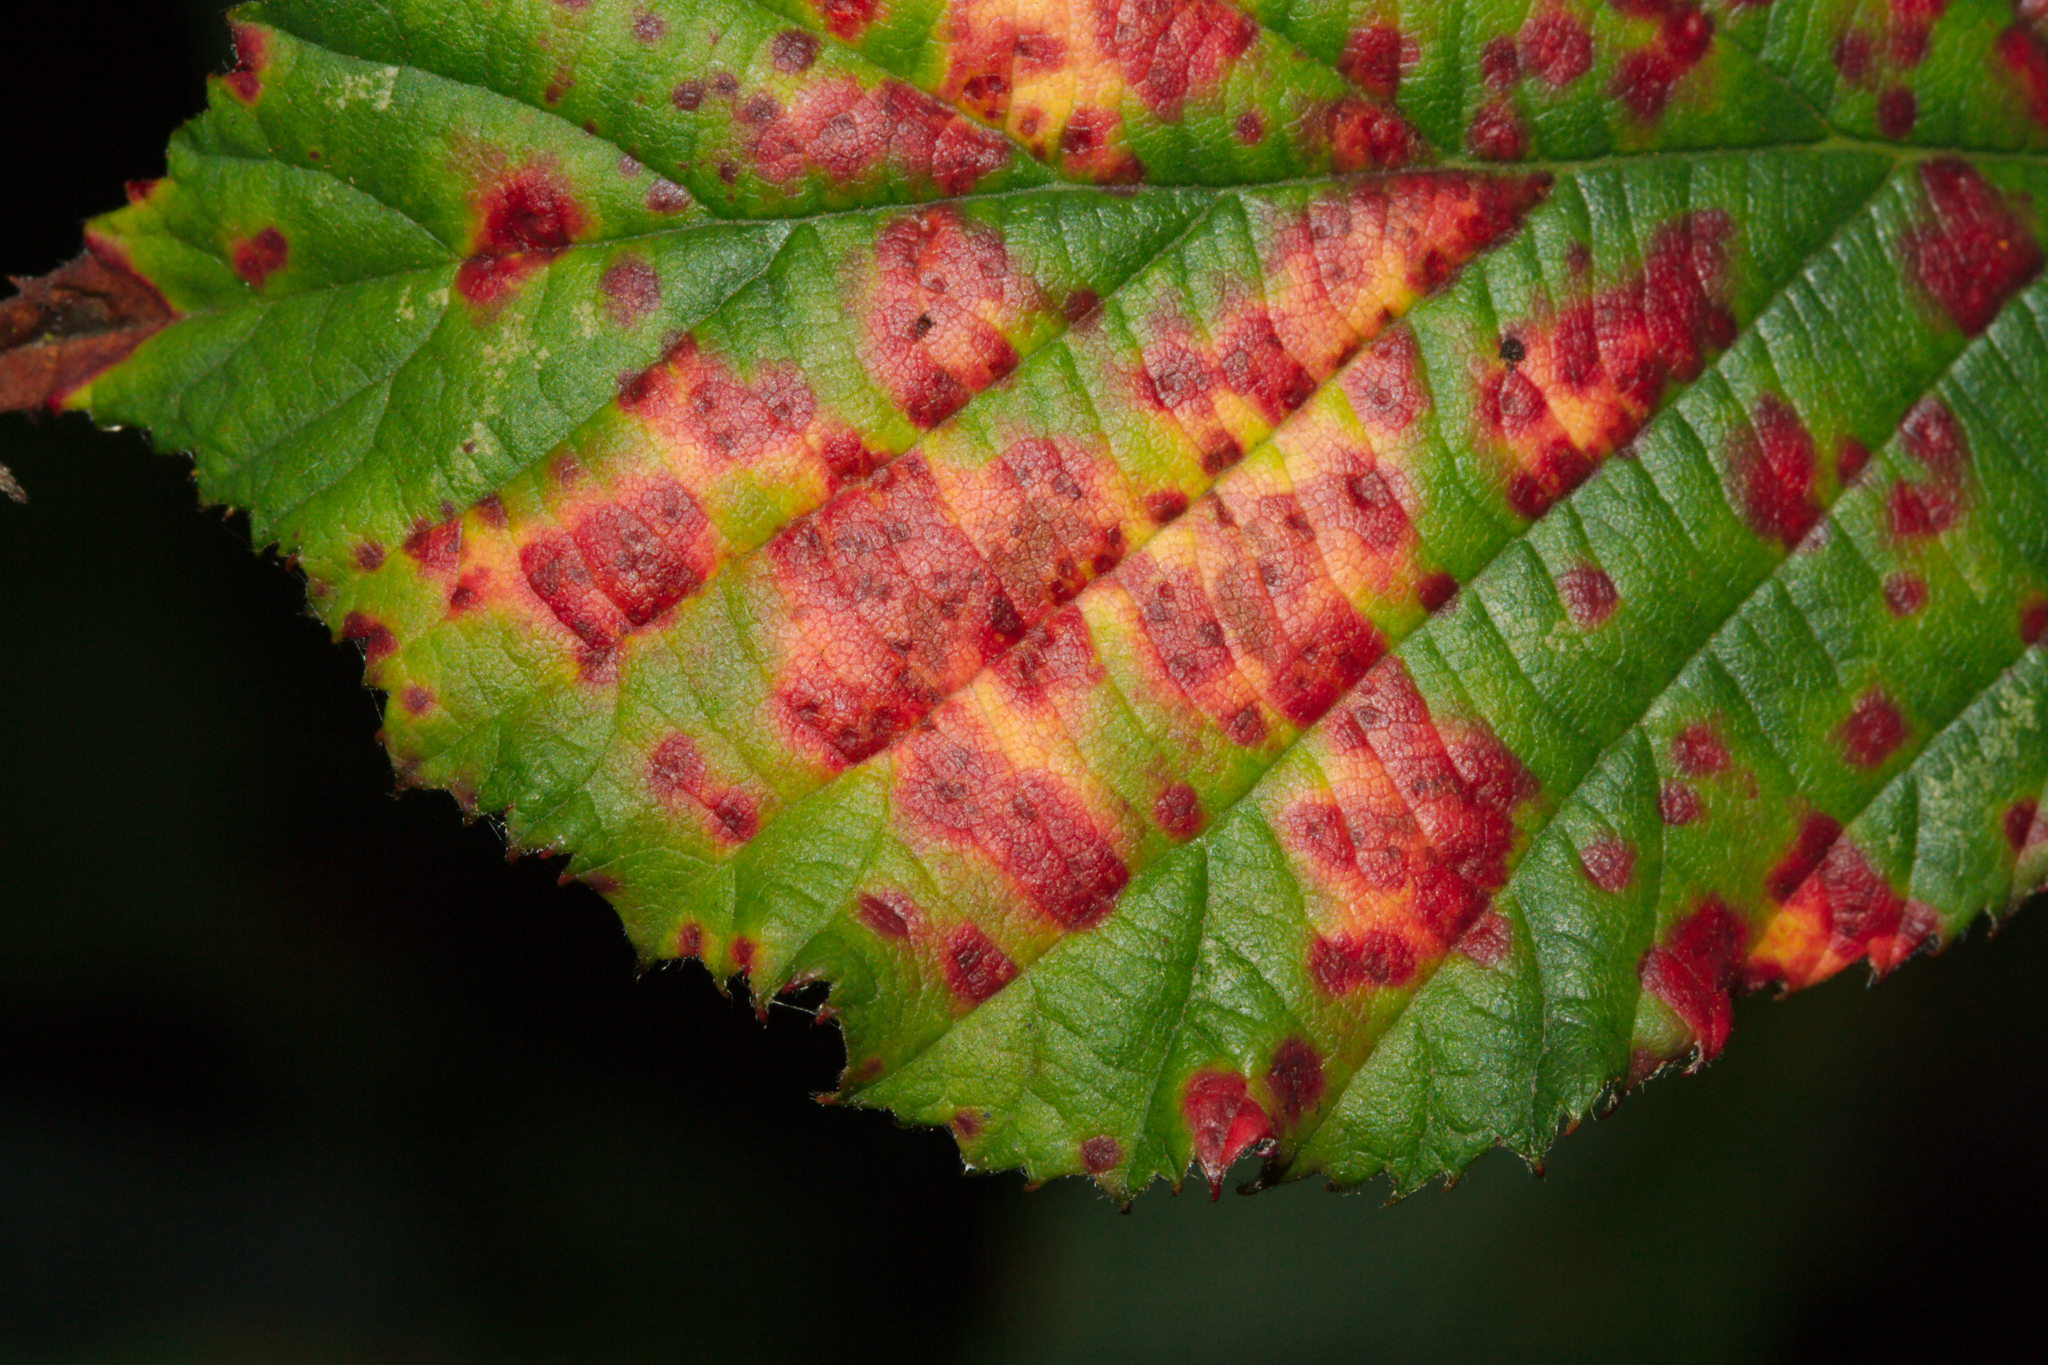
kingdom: Fungi
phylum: Basidiomycota
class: Pucciniomycetes
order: Pucciniales
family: Phragmidiaceae
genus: Phragmidium
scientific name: Phragmidium violaceum
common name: Violet bramble rust
